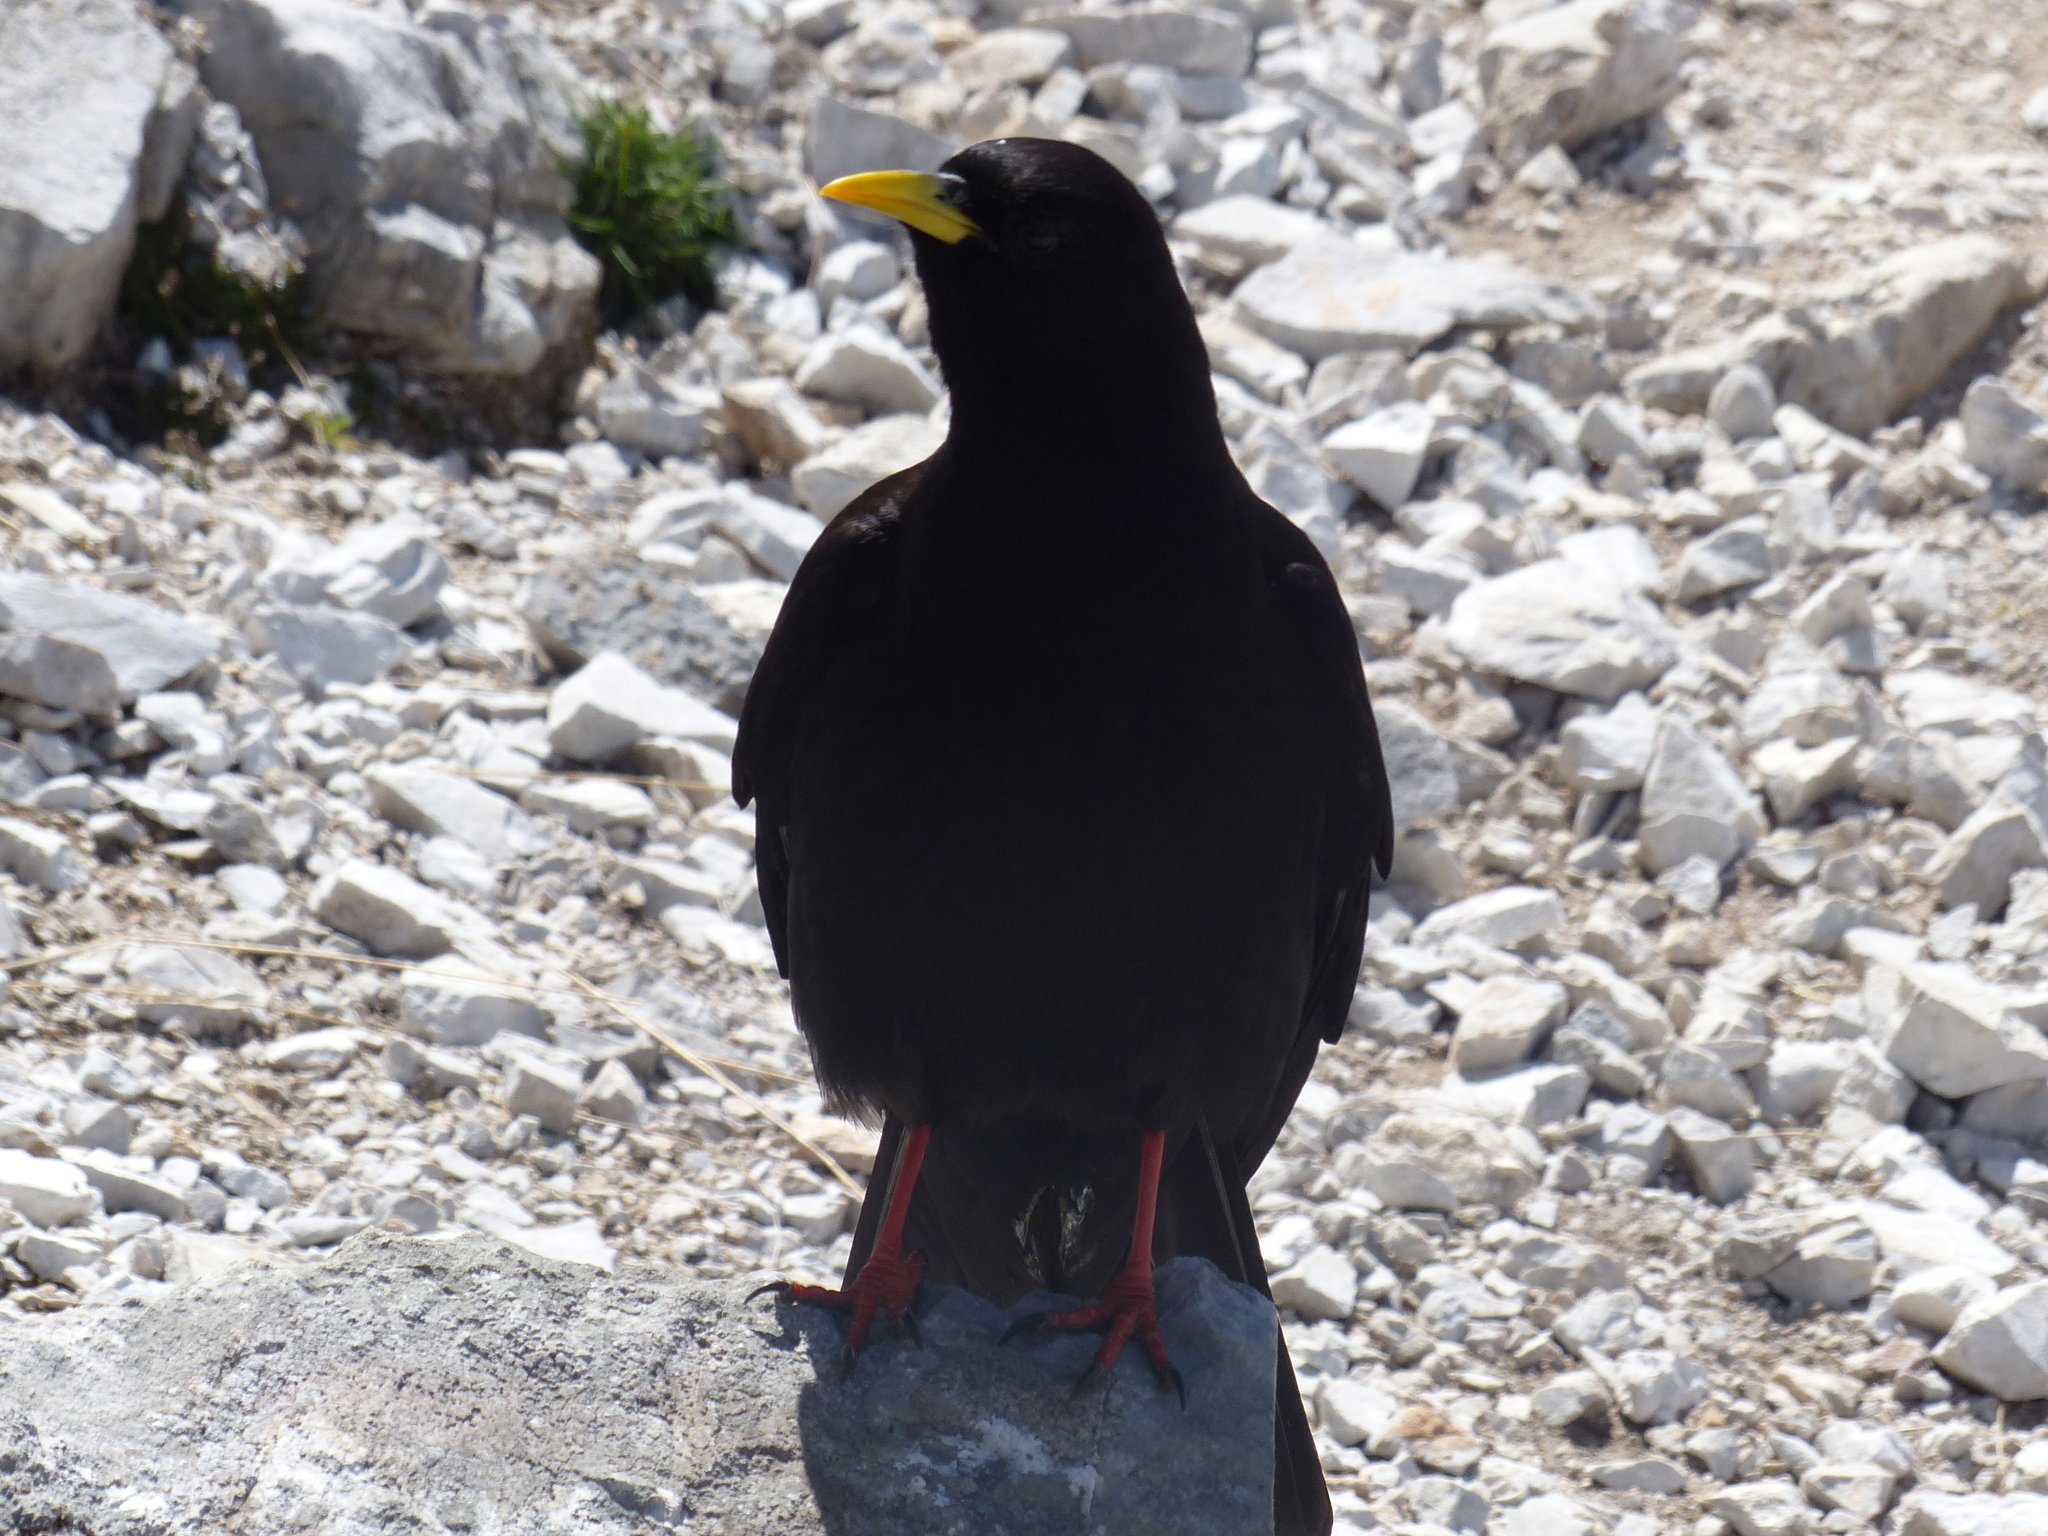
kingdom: Animalia
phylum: Chordata
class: Aves
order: Passeriformes
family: Corvidae
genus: Pyrrhocorax
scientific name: Pyrrhocorax graculus
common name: Alpine chough
